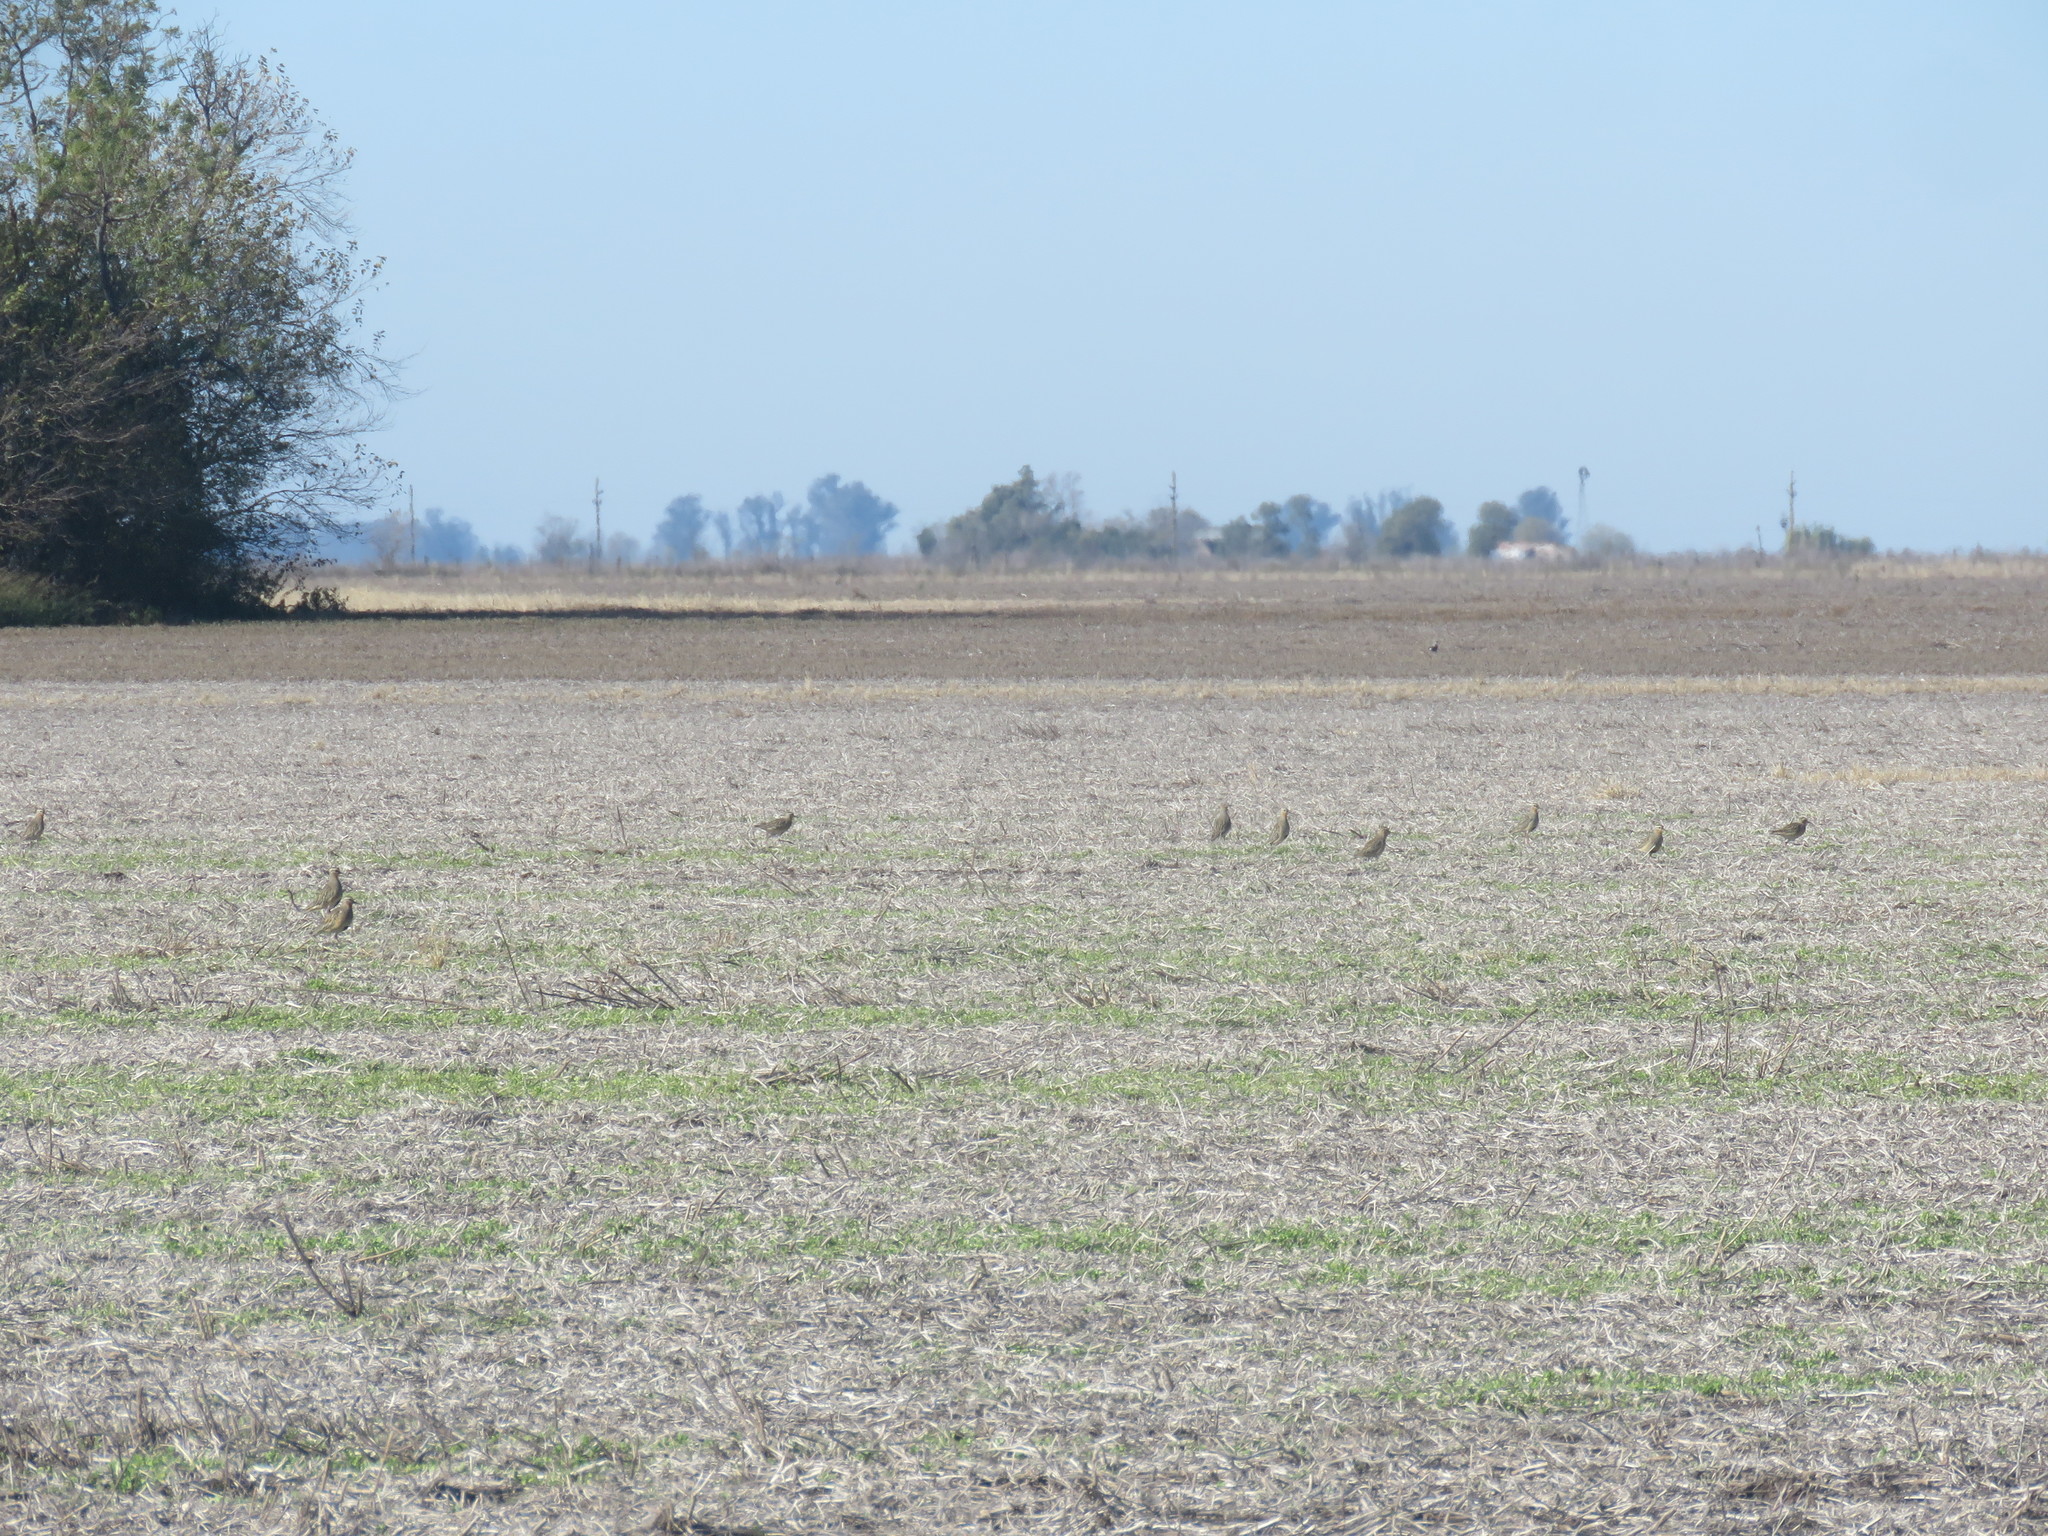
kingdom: Animalia
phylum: Chordata
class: Aves
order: Charadriiformes
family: Charadriidae
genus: Oreopholus
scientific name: Oreopholus ruficollis
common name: Tawny-throated dotterel
